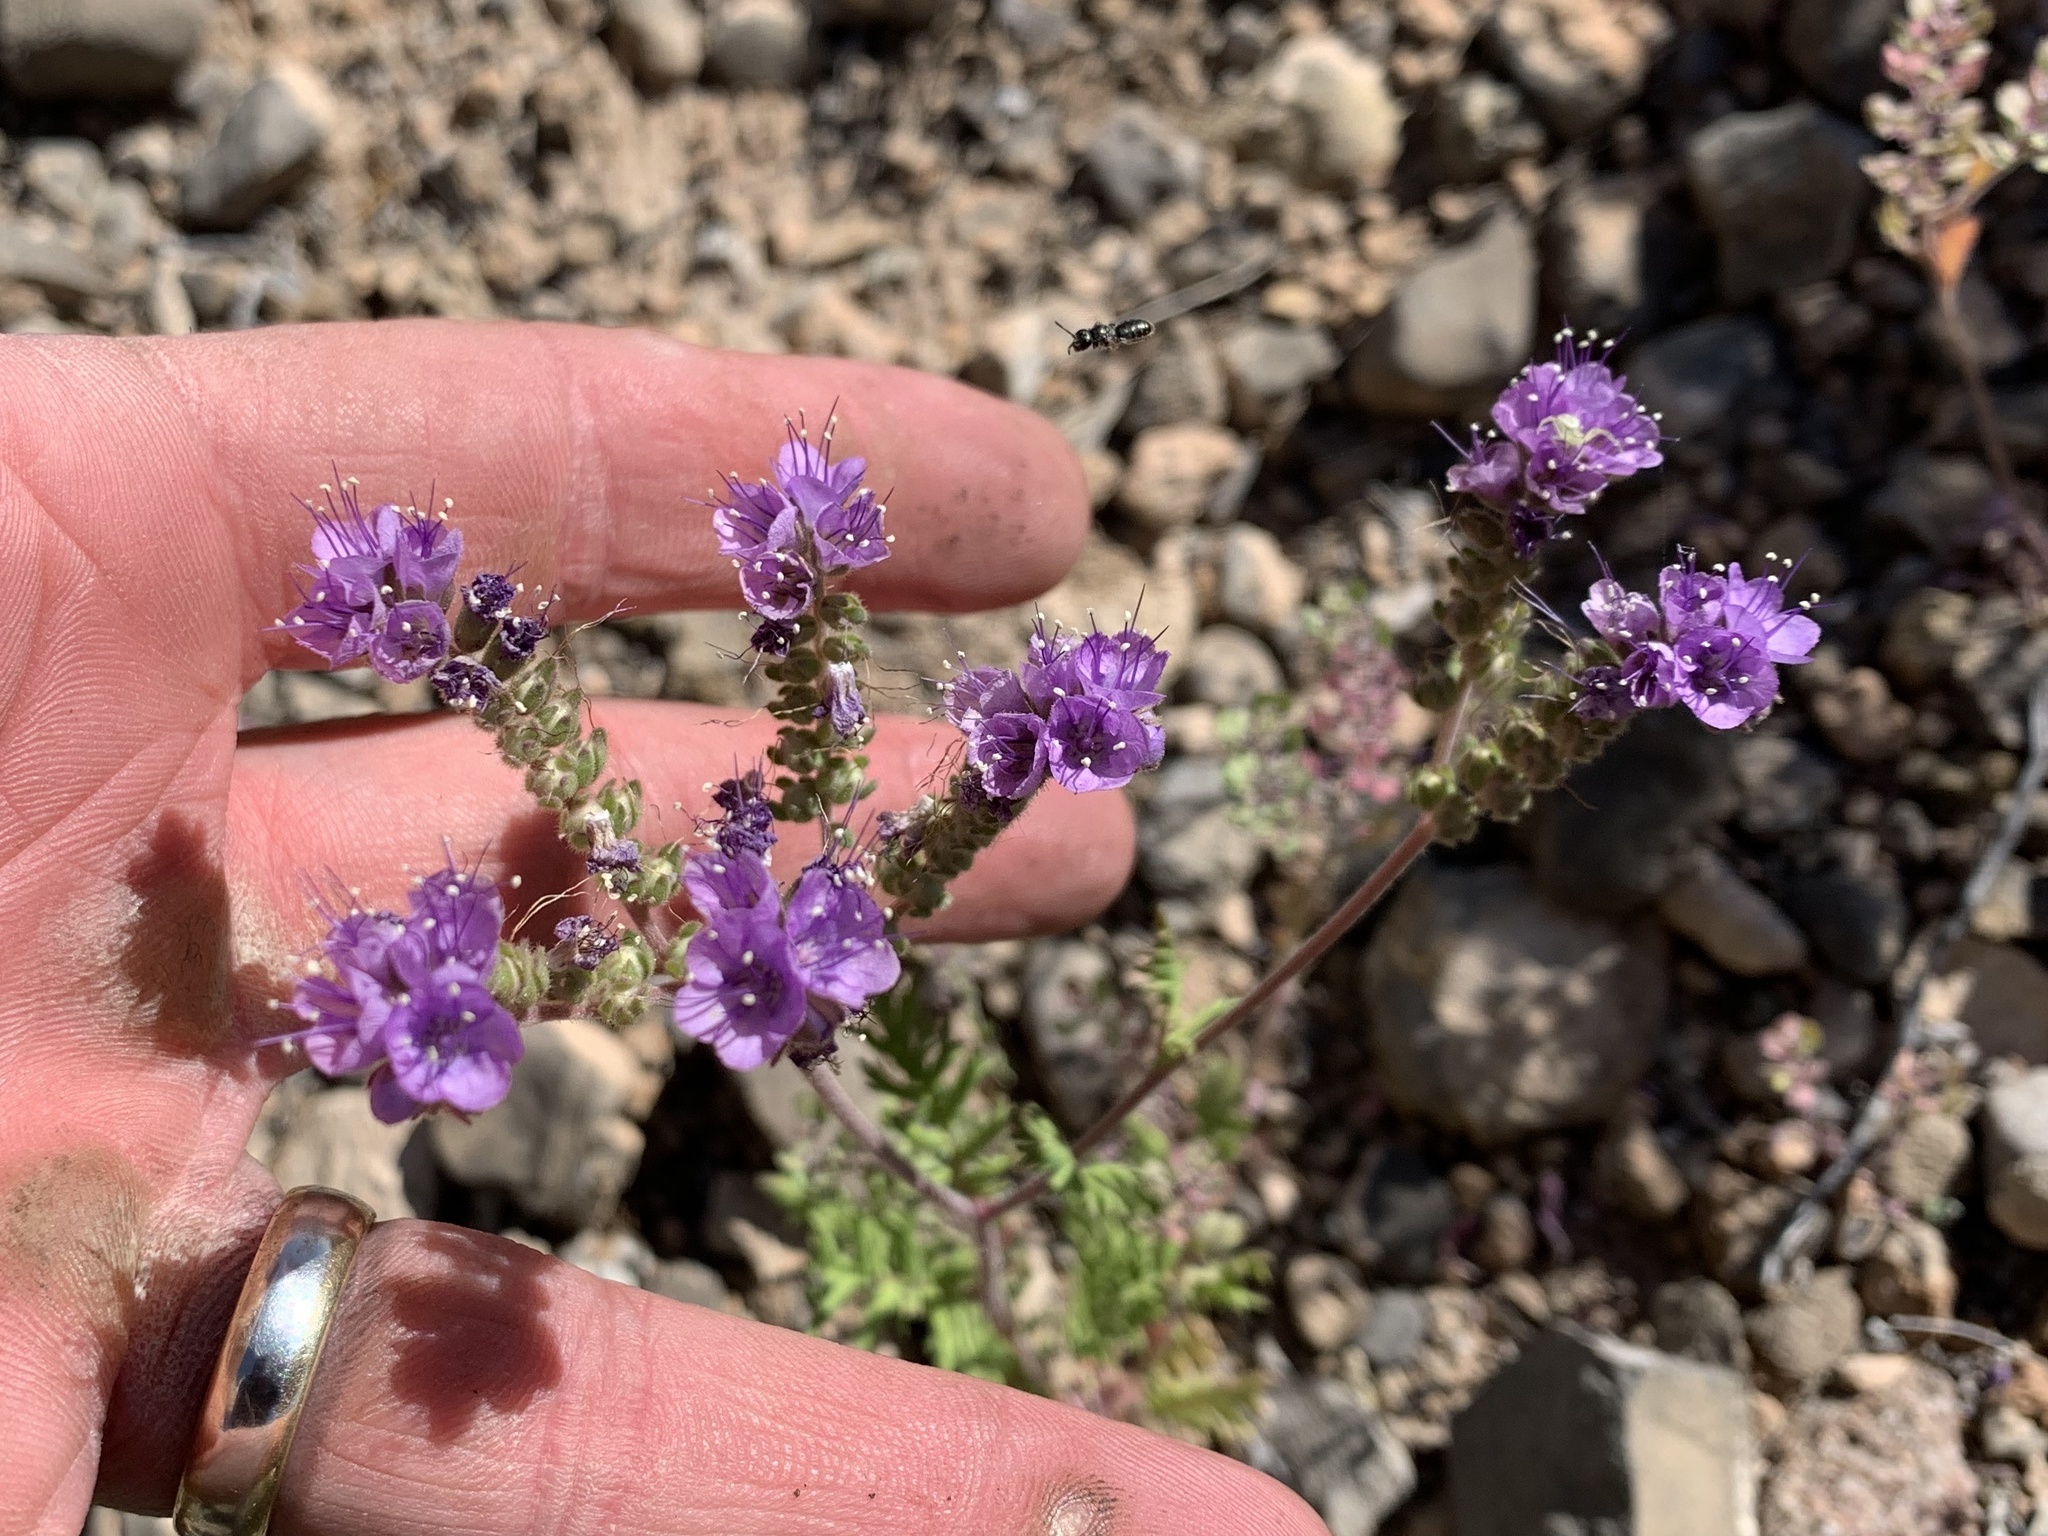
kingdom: Plantae
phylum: Tracheophyta
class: Magnoliopsida
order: Boraginales
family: Hydrophyllaceae
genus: Phacelia
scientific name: Phacelia popei
